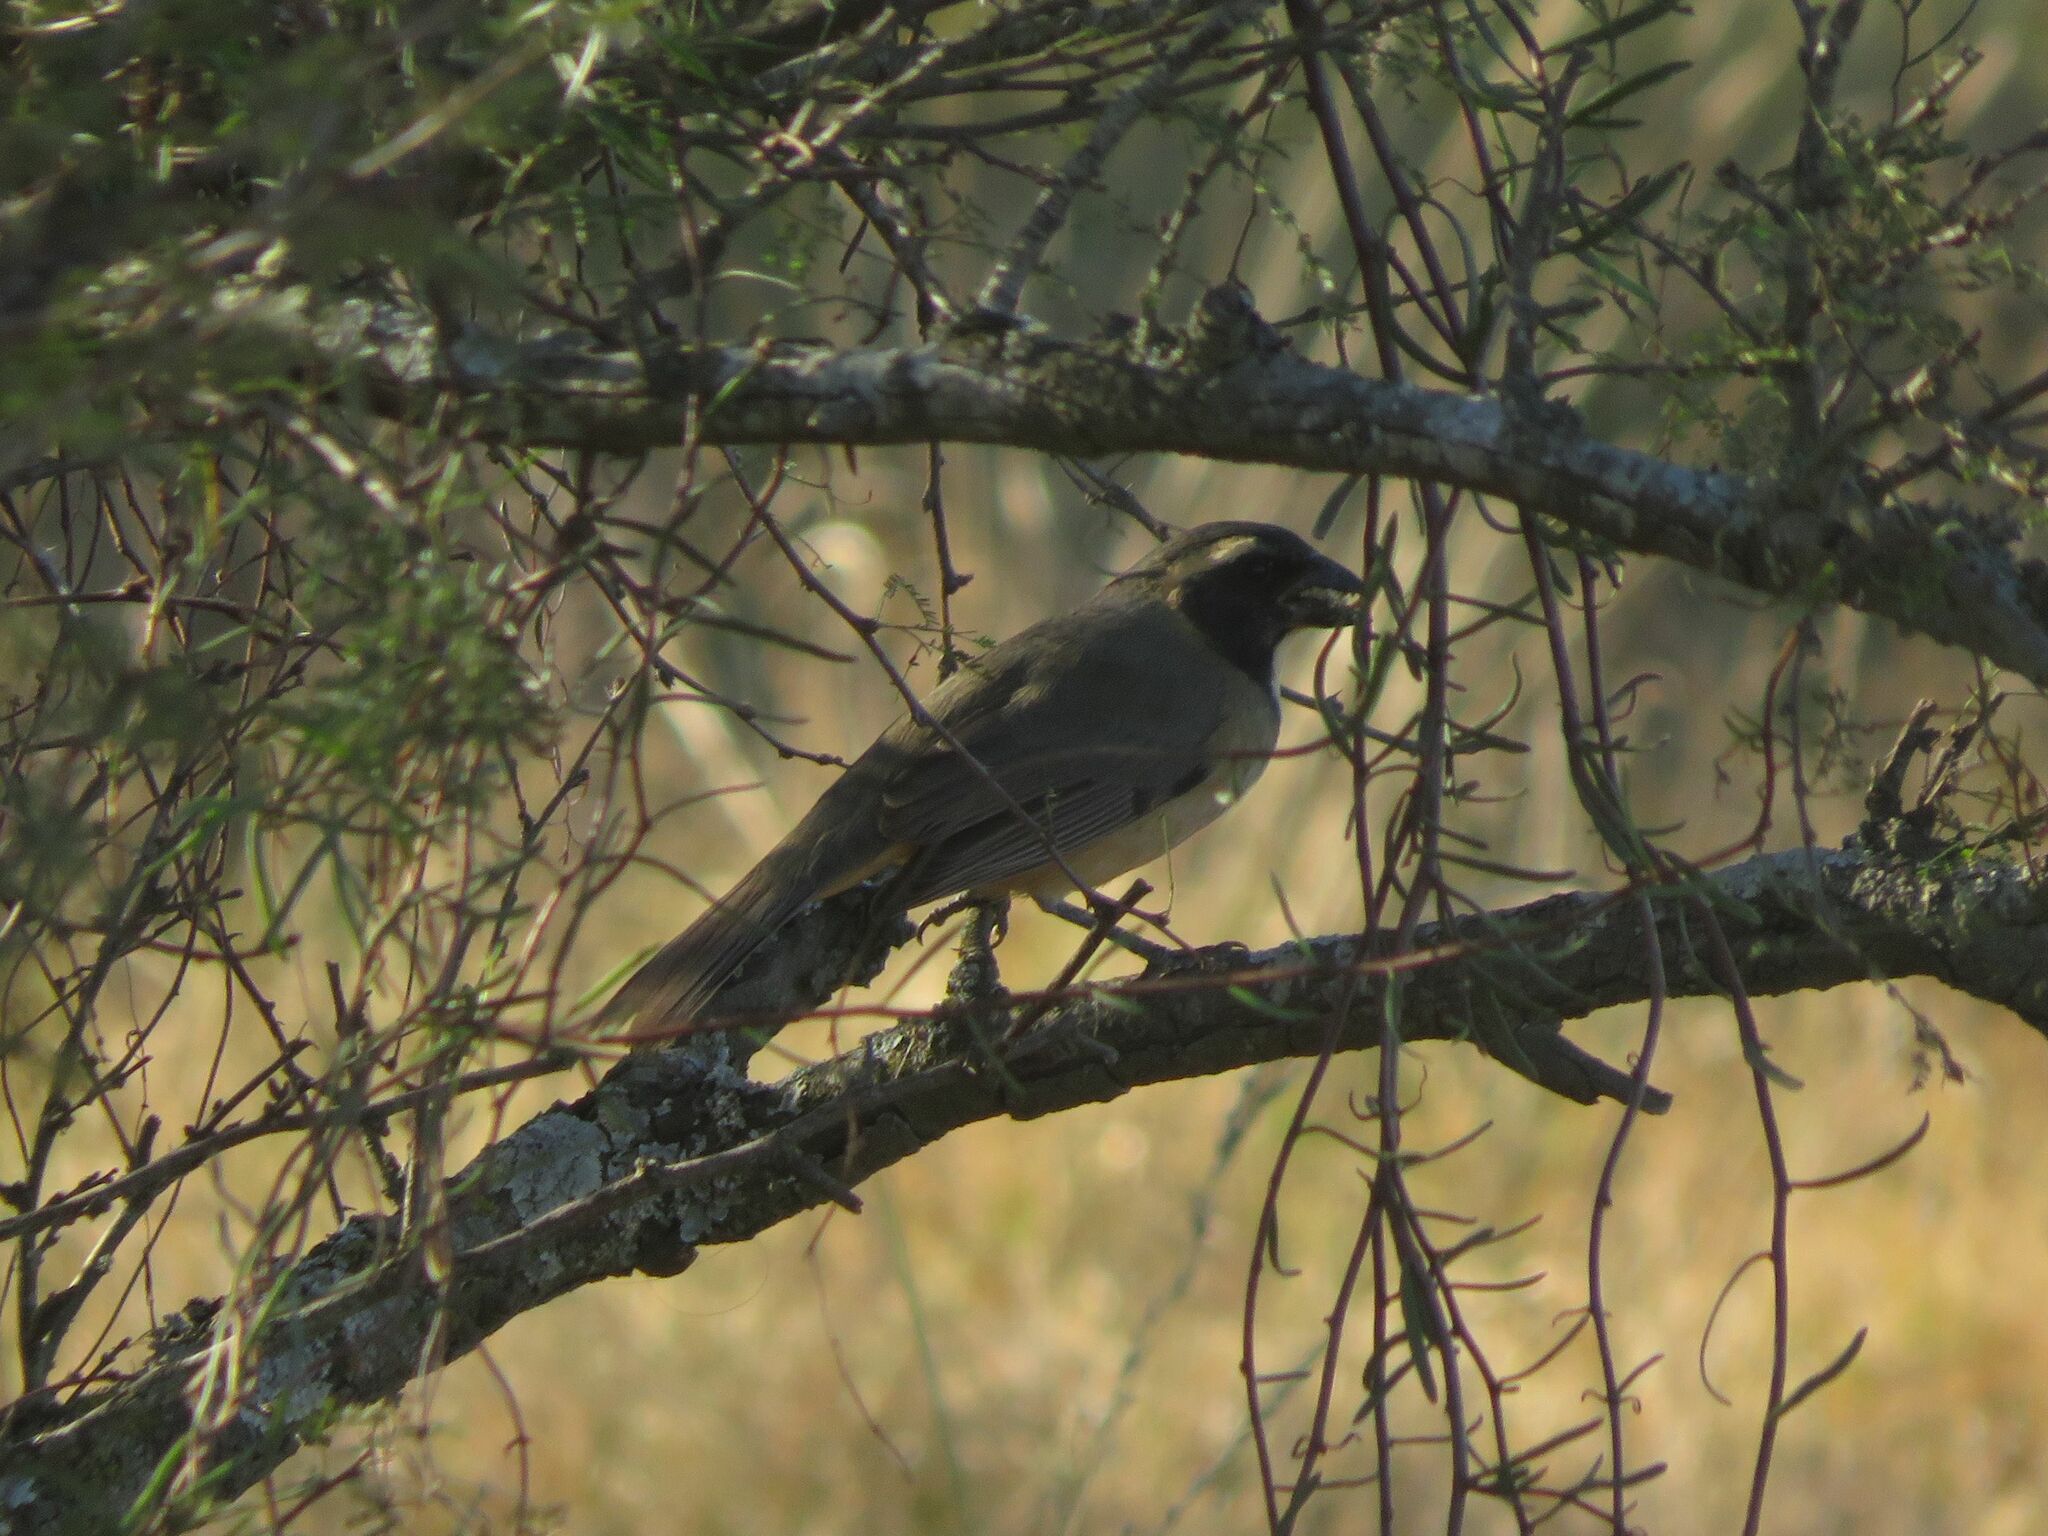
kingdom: Animalia
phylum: Chordata
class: Aves
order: Passeriformes
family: Thraupidae
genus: Saltator
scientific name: Saltator aurantiirostris
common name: Golden-billed saltator
